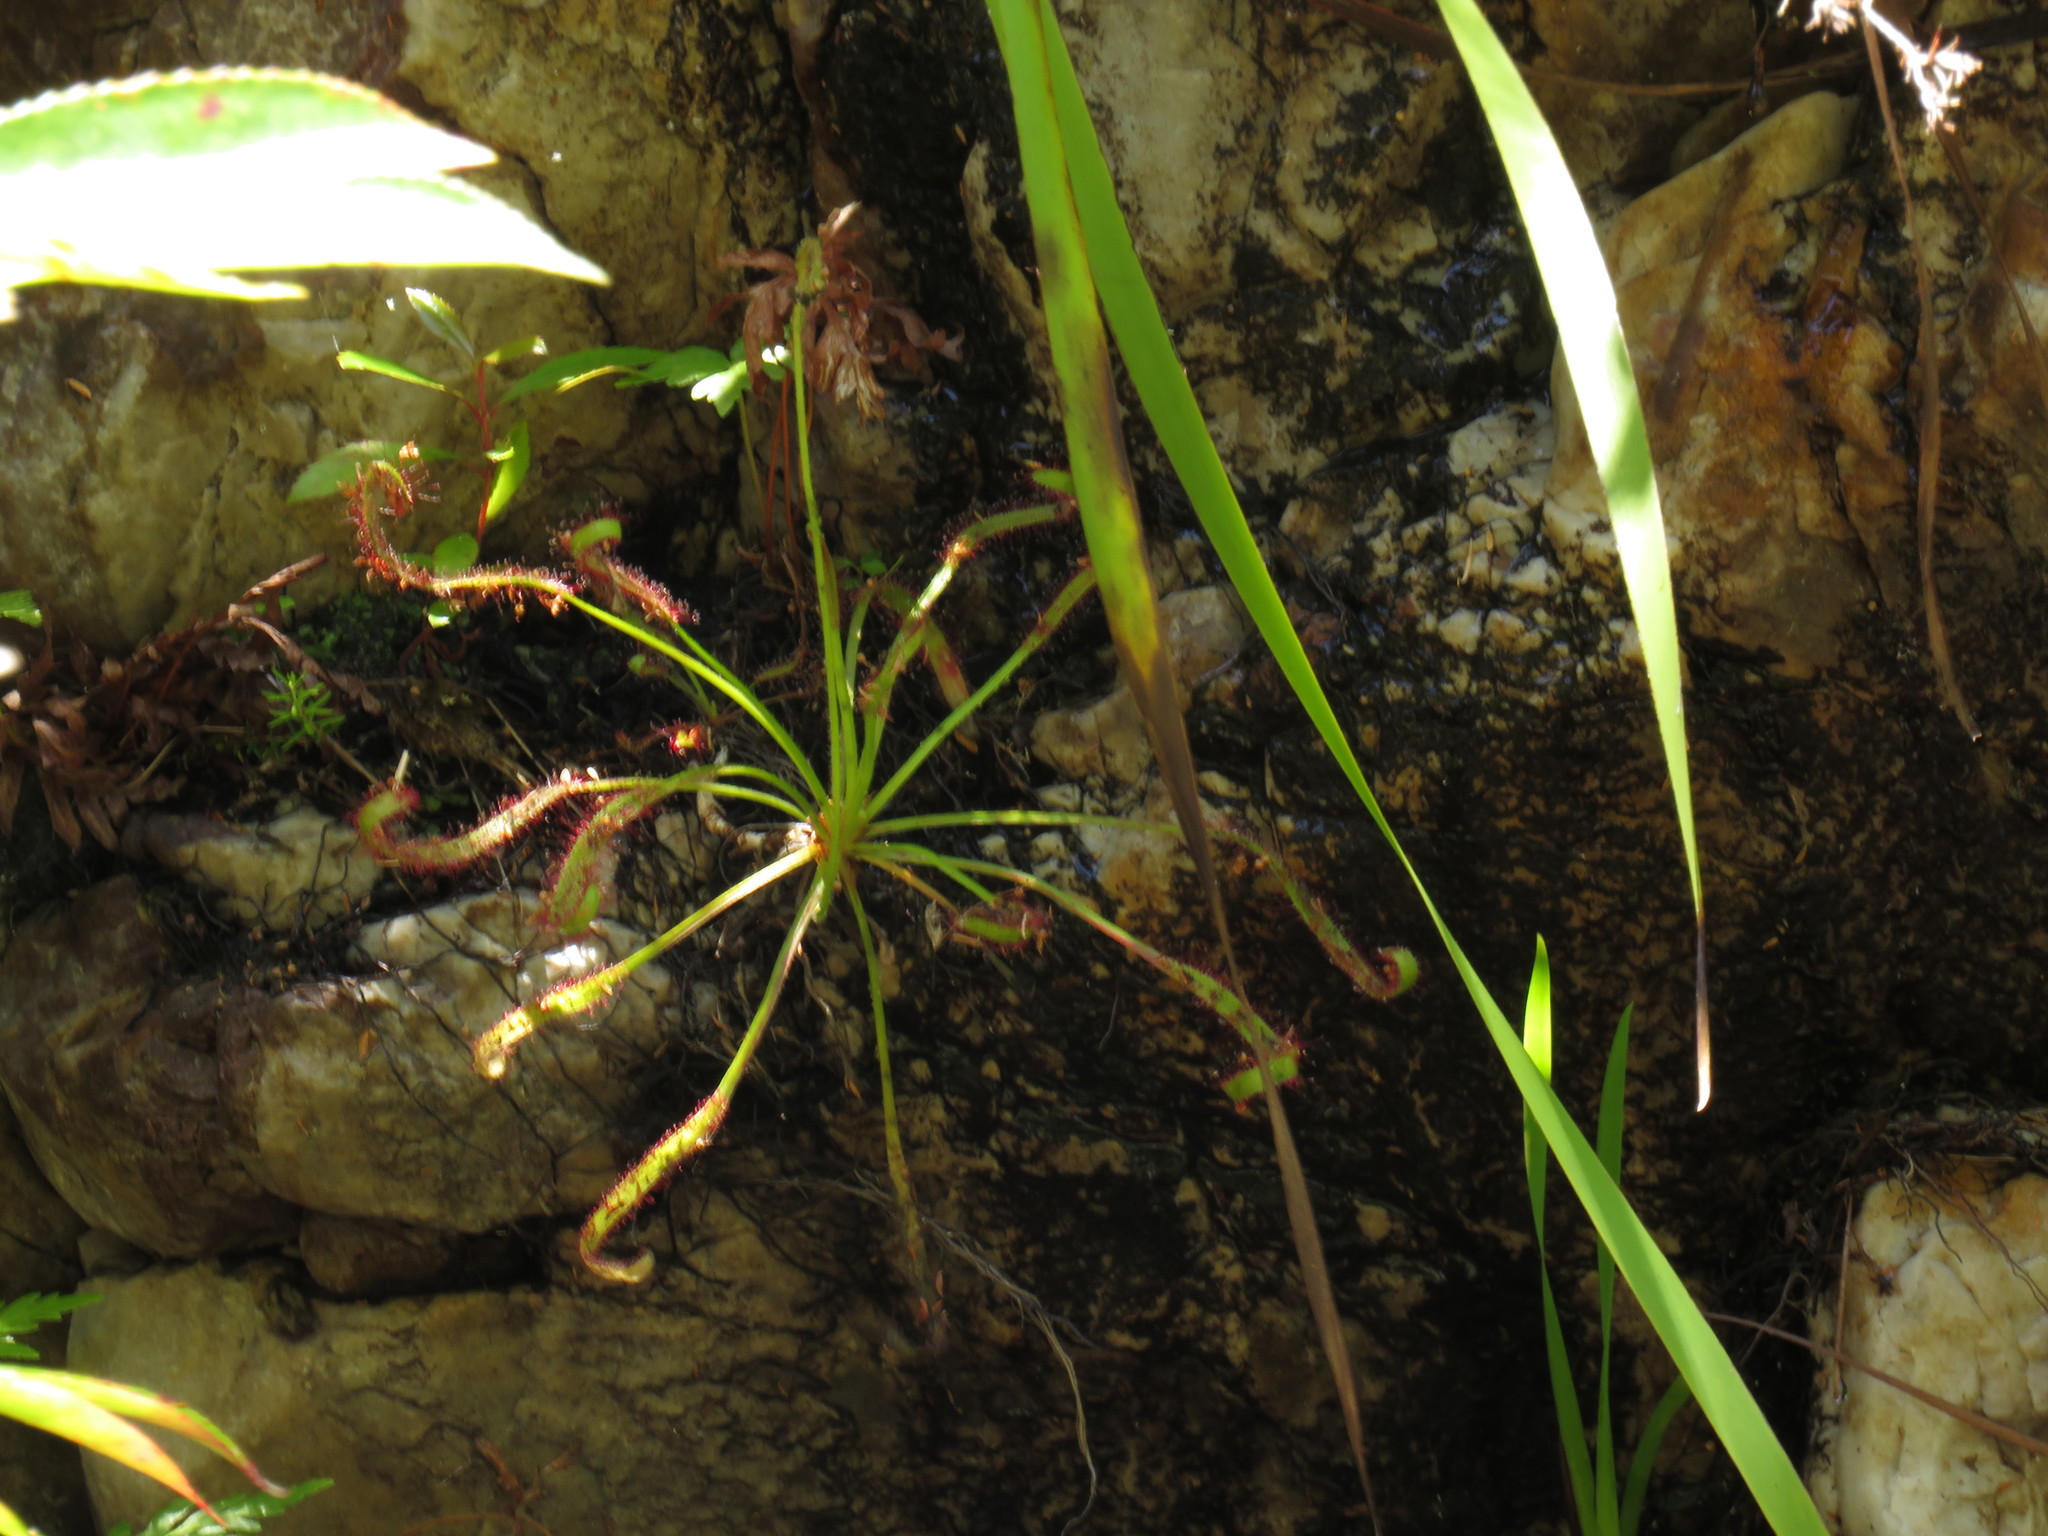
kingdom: Plantae
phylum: Tracheophyta
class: Magnoliopsida
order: Caryophyllales
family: Droseraceae
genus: Drosera
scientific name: Drosera capensis
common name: Cape sundew
